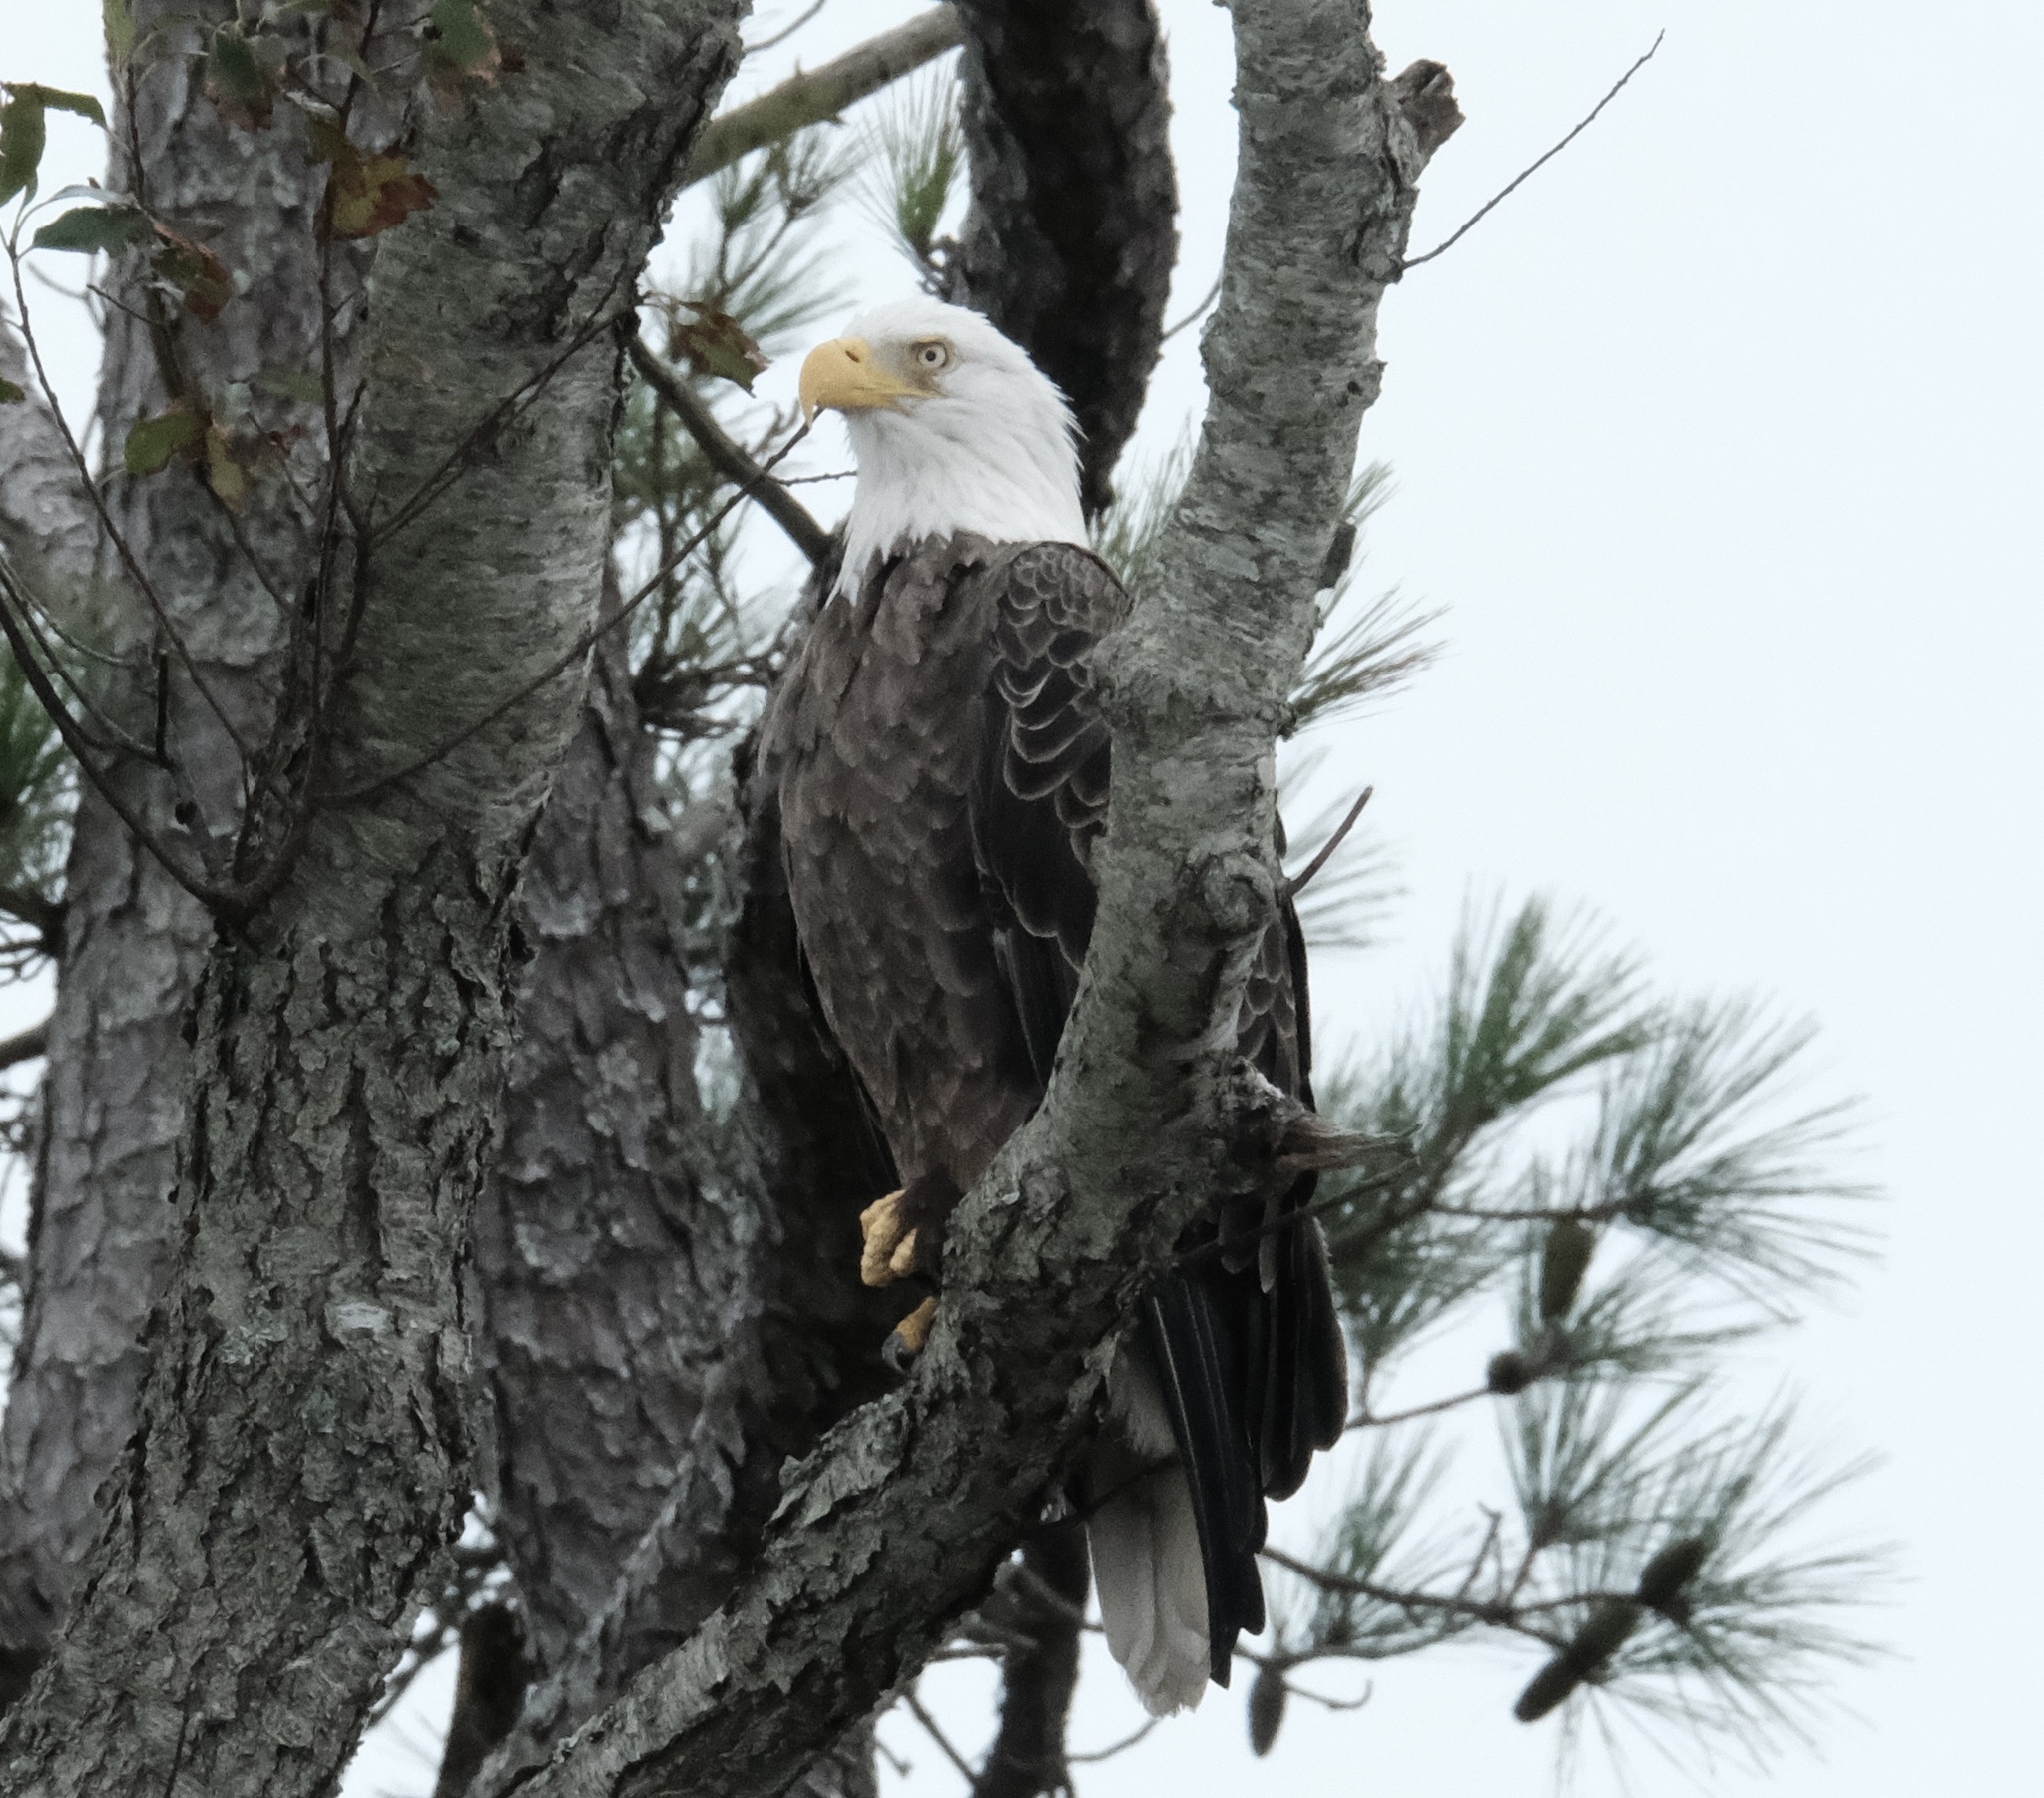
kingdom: Animalia
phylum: Chordata
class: Aves
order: Accipitriformes
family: Accipitridae
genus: Haliaeetus
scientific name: Haliaeetus leucocephalus
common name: Bald eagle
